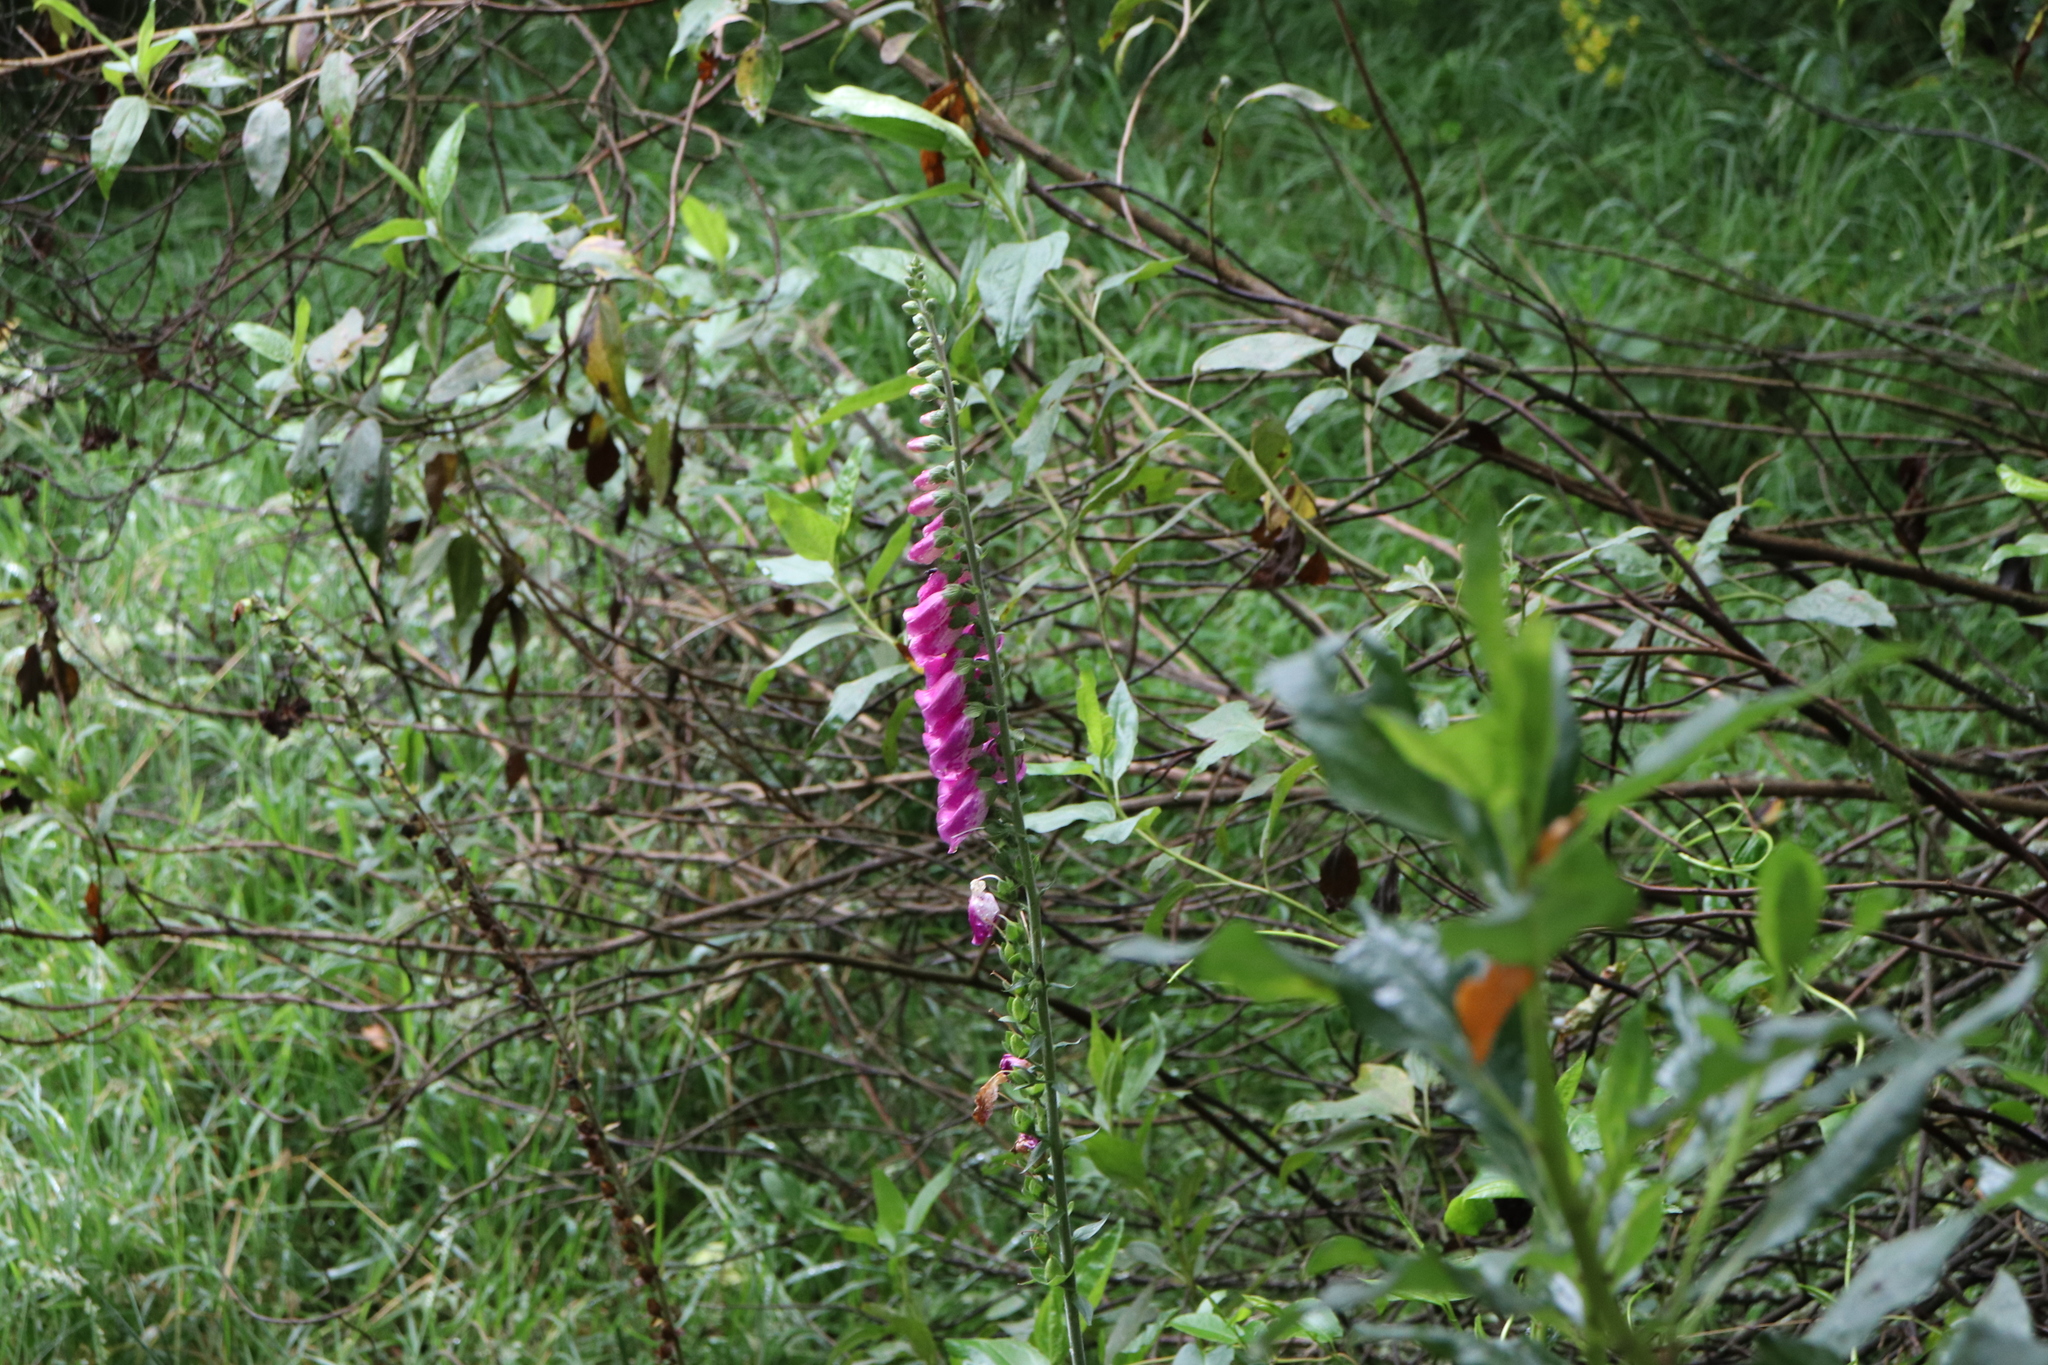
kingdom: Plantae
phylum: Tracheophyta
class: Magnoliopsida
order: Lamiales
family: Plantaginaceae
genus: Digitalis
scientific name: Digitalis purpurea
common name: Foxglove
